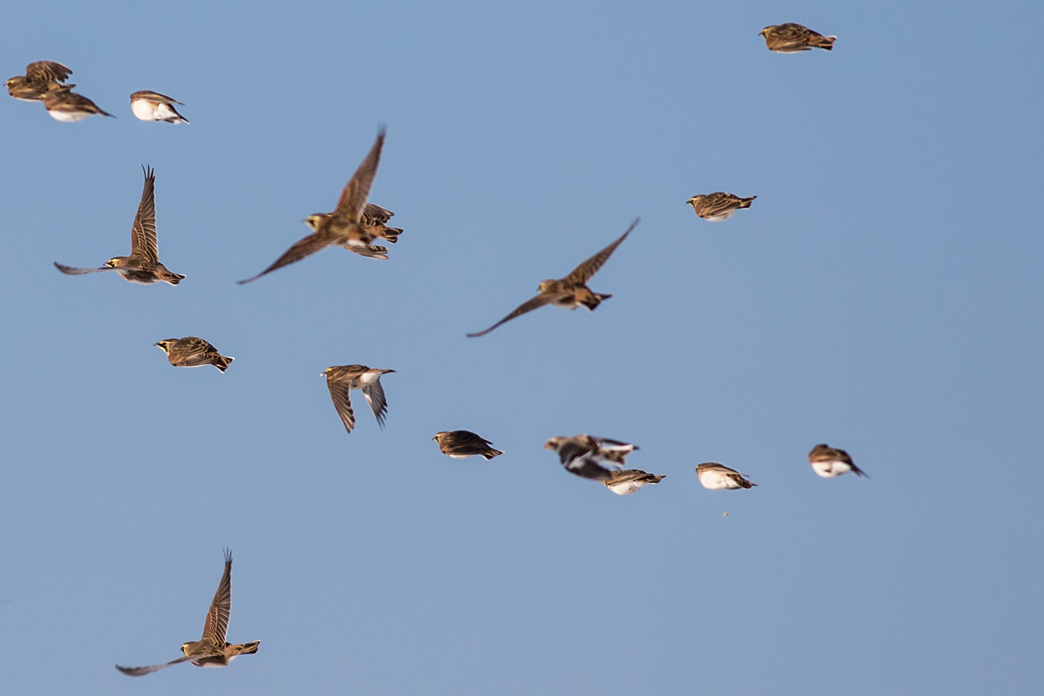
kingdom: Animalia
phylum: Chordata
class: Aves
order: Passeriformes
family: Calcariidae
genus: Plectrophenax
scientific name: Plectrophenax nivalis
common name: Snow bunting
